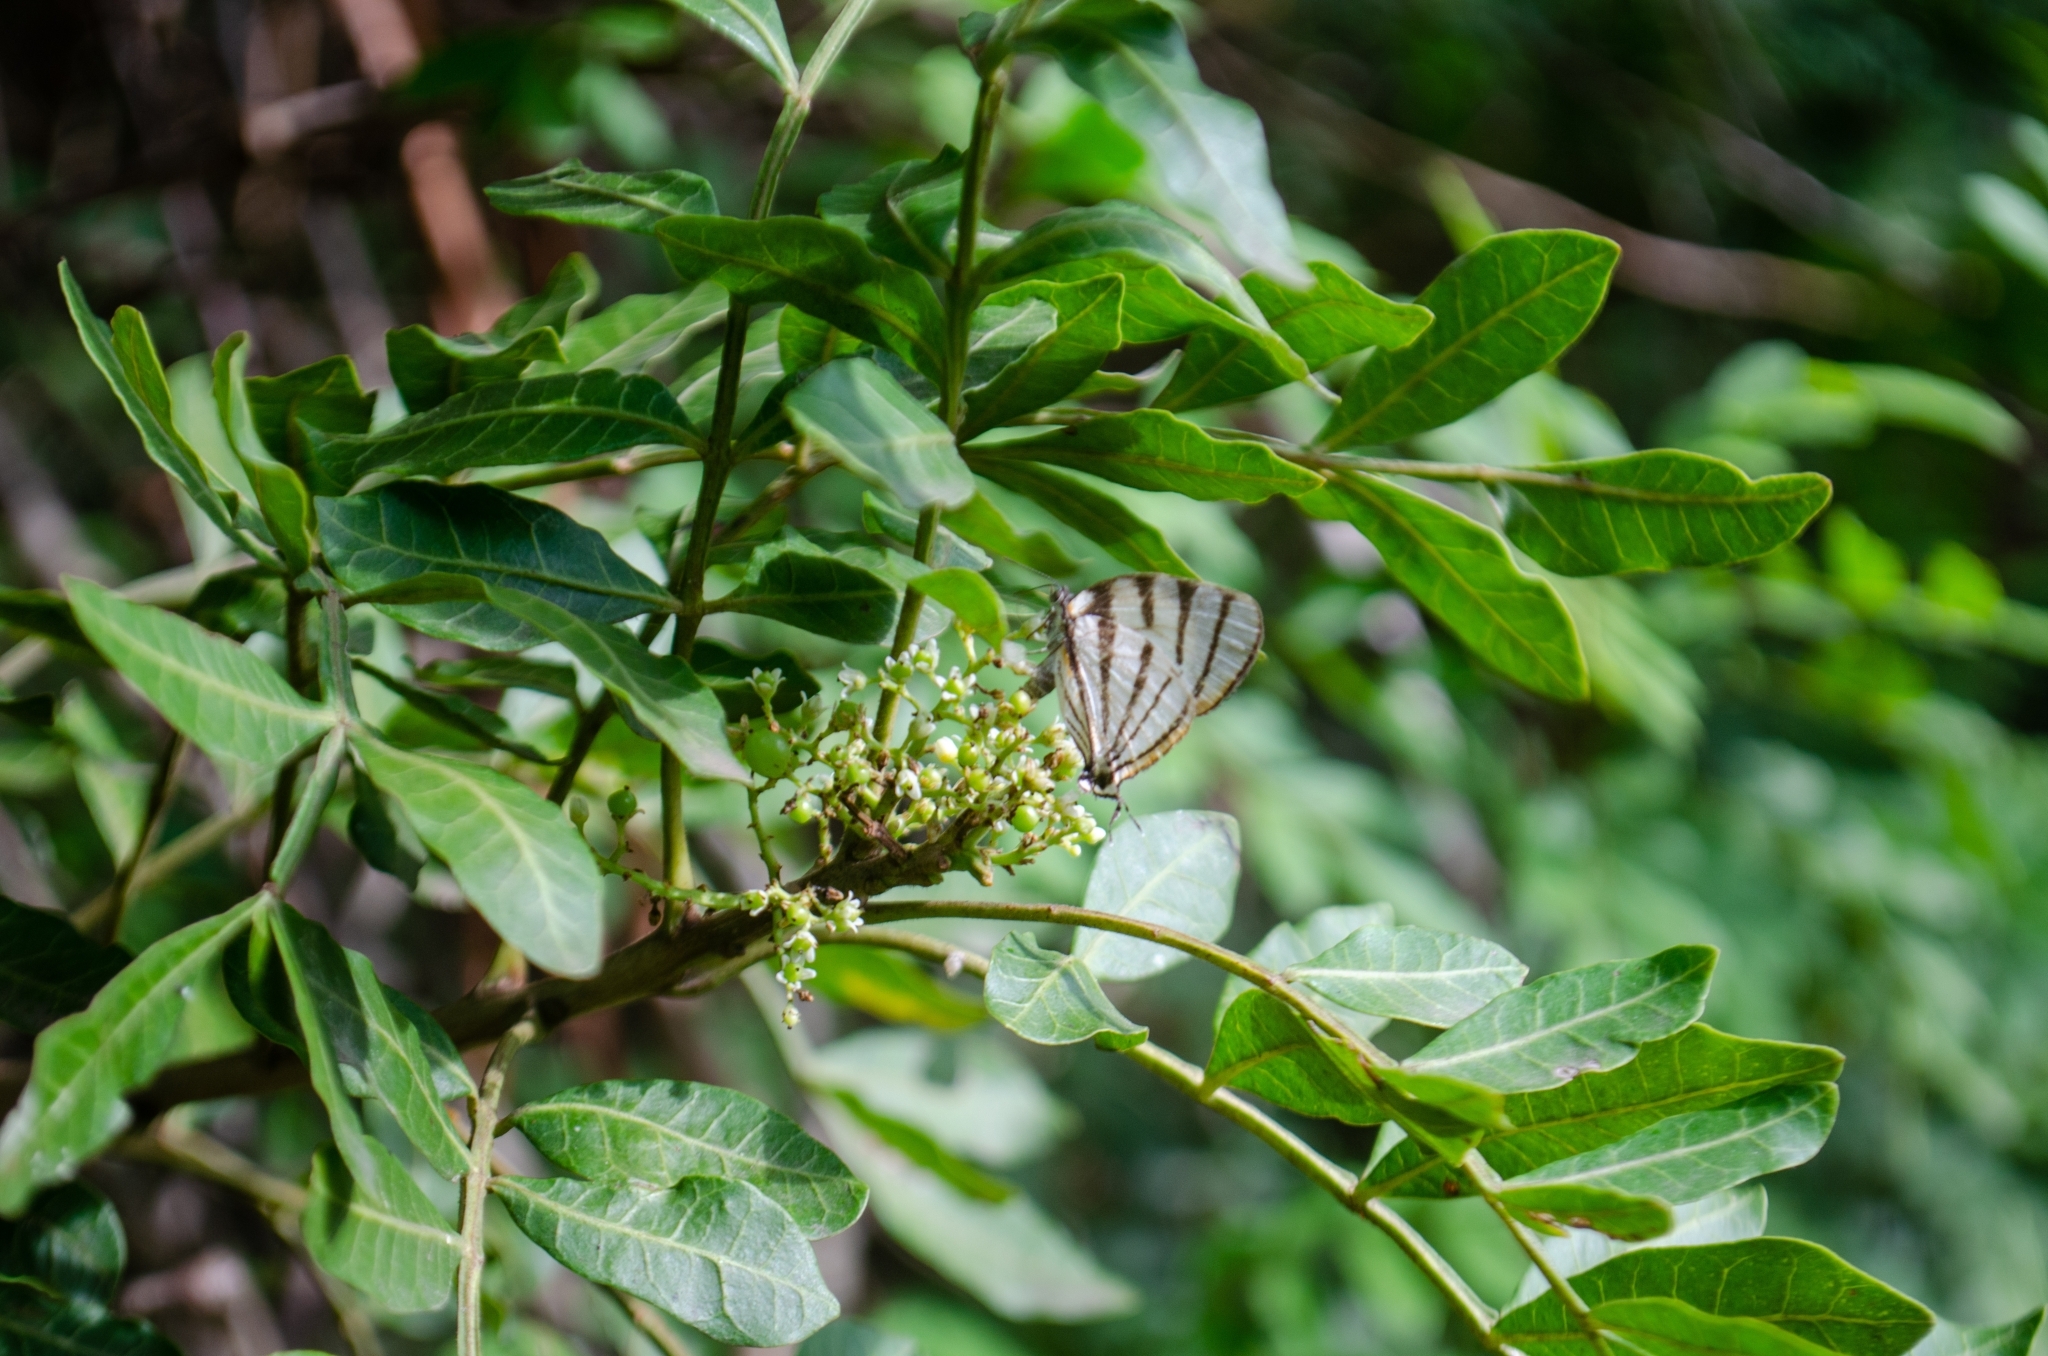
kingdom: Animalia
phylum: Arthropoda
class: Insecta
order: Lepidoptera
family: Lycaenidae
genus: Arawacus
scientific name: Arawacus separata
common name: Separated stripestreak
